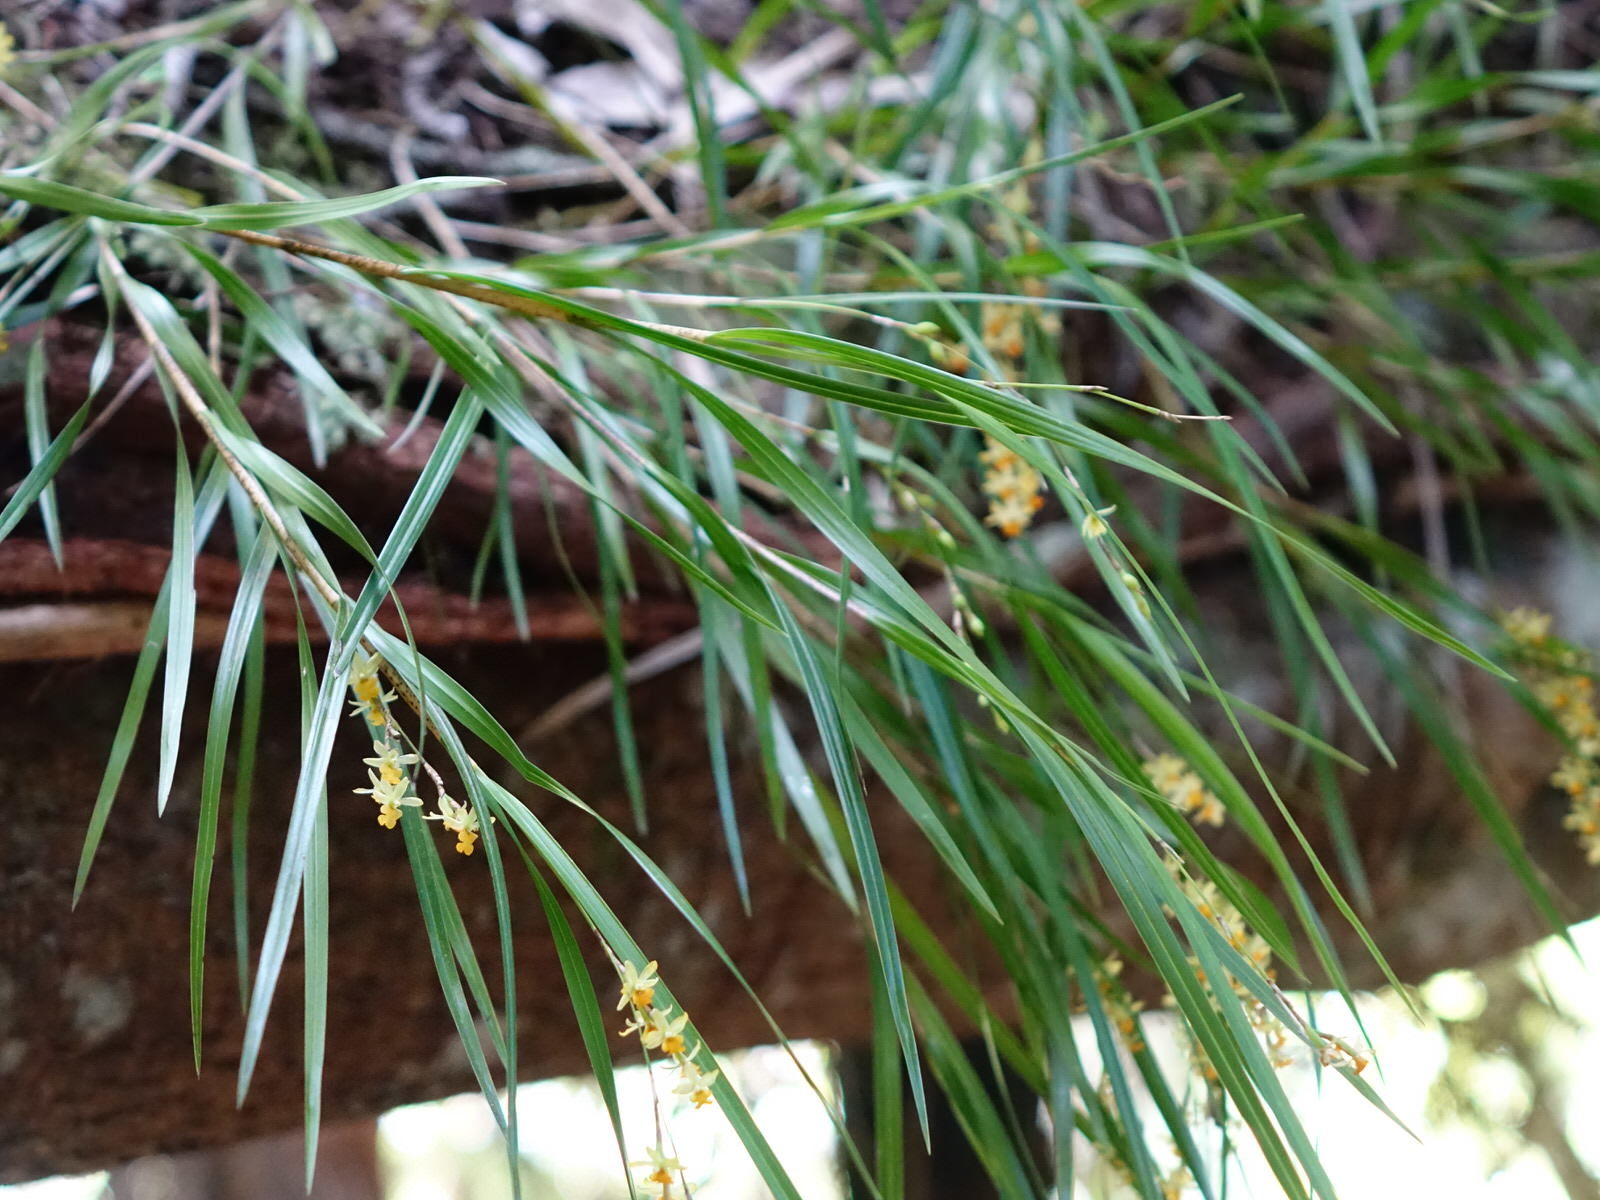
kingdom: Plantae
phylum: Tracheophyta
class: Liliopsida
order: Asparagales
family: Orchidaceae
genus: Earina
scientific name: Earina aestivalis
